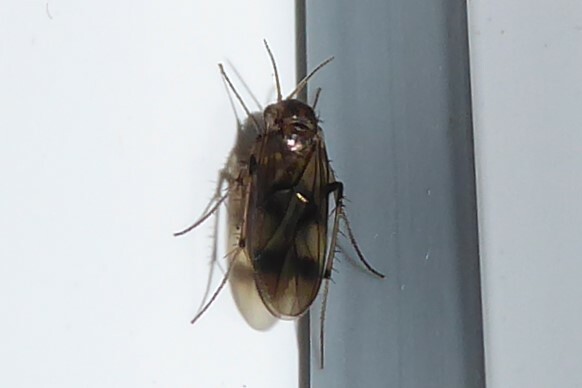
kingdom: Animalia
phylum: Arthropoda
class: Insecta
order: Diptera
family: Mycetophilidae
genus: Anomalomyia
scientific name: Anomalomyia guttata
